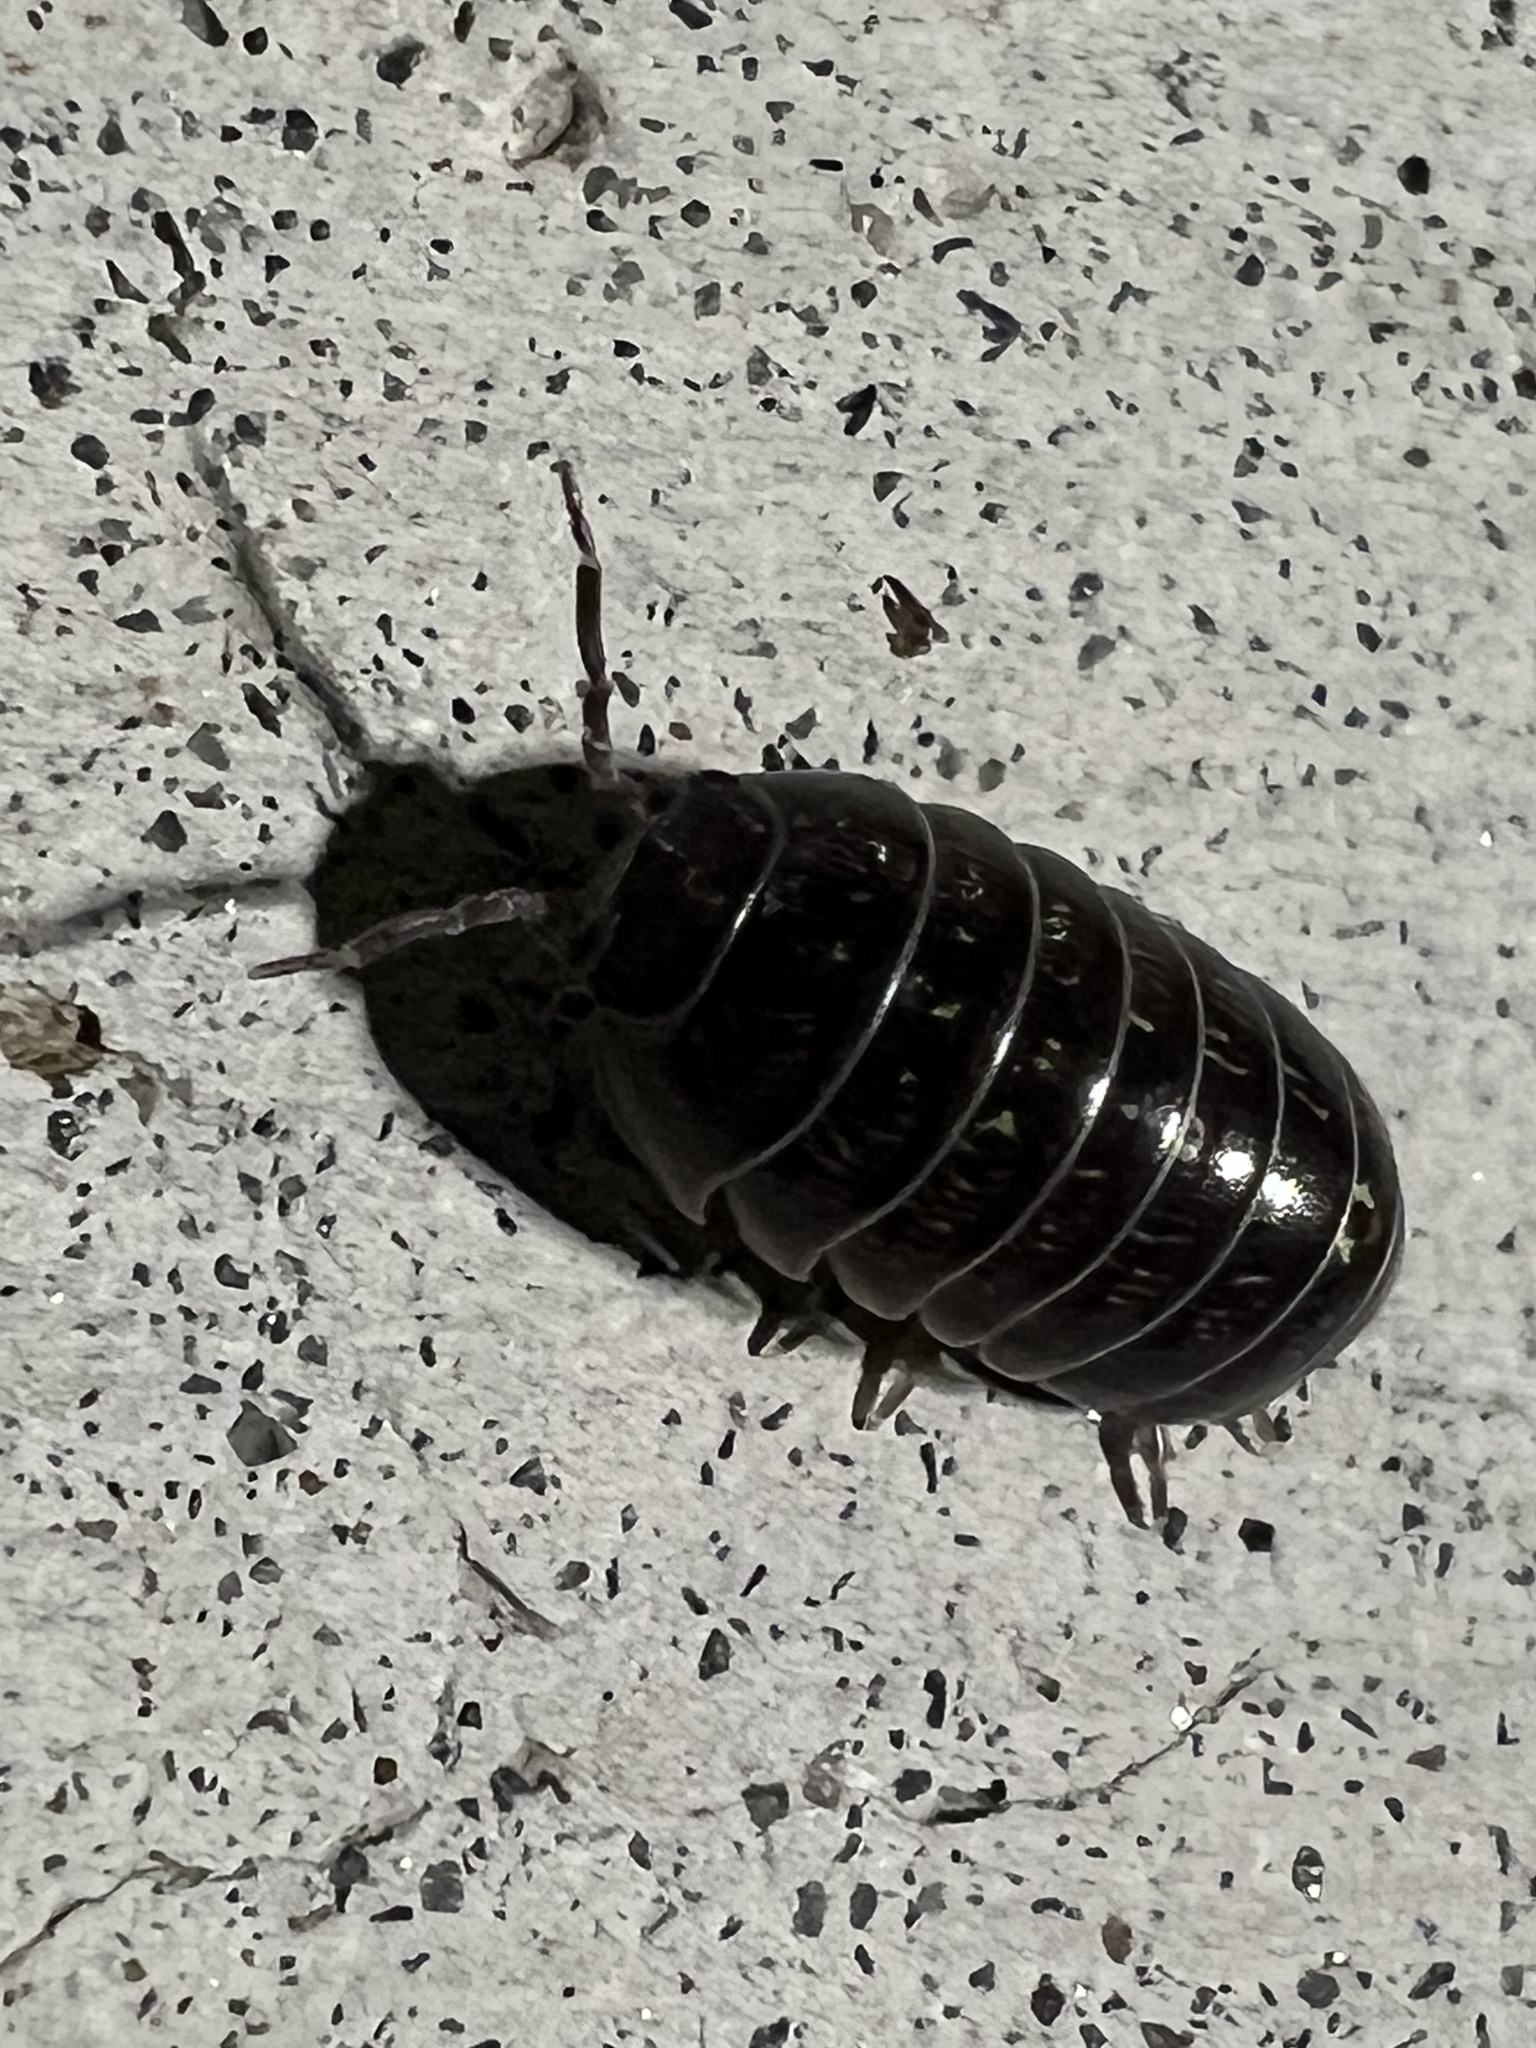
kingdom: Animalia
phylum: Arthropoda
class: Malacostraca
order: Isopoda
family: Armadillidiidae
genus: Armadillidium
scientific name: Armadillidium vulgare
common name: Common pill woodlouse
